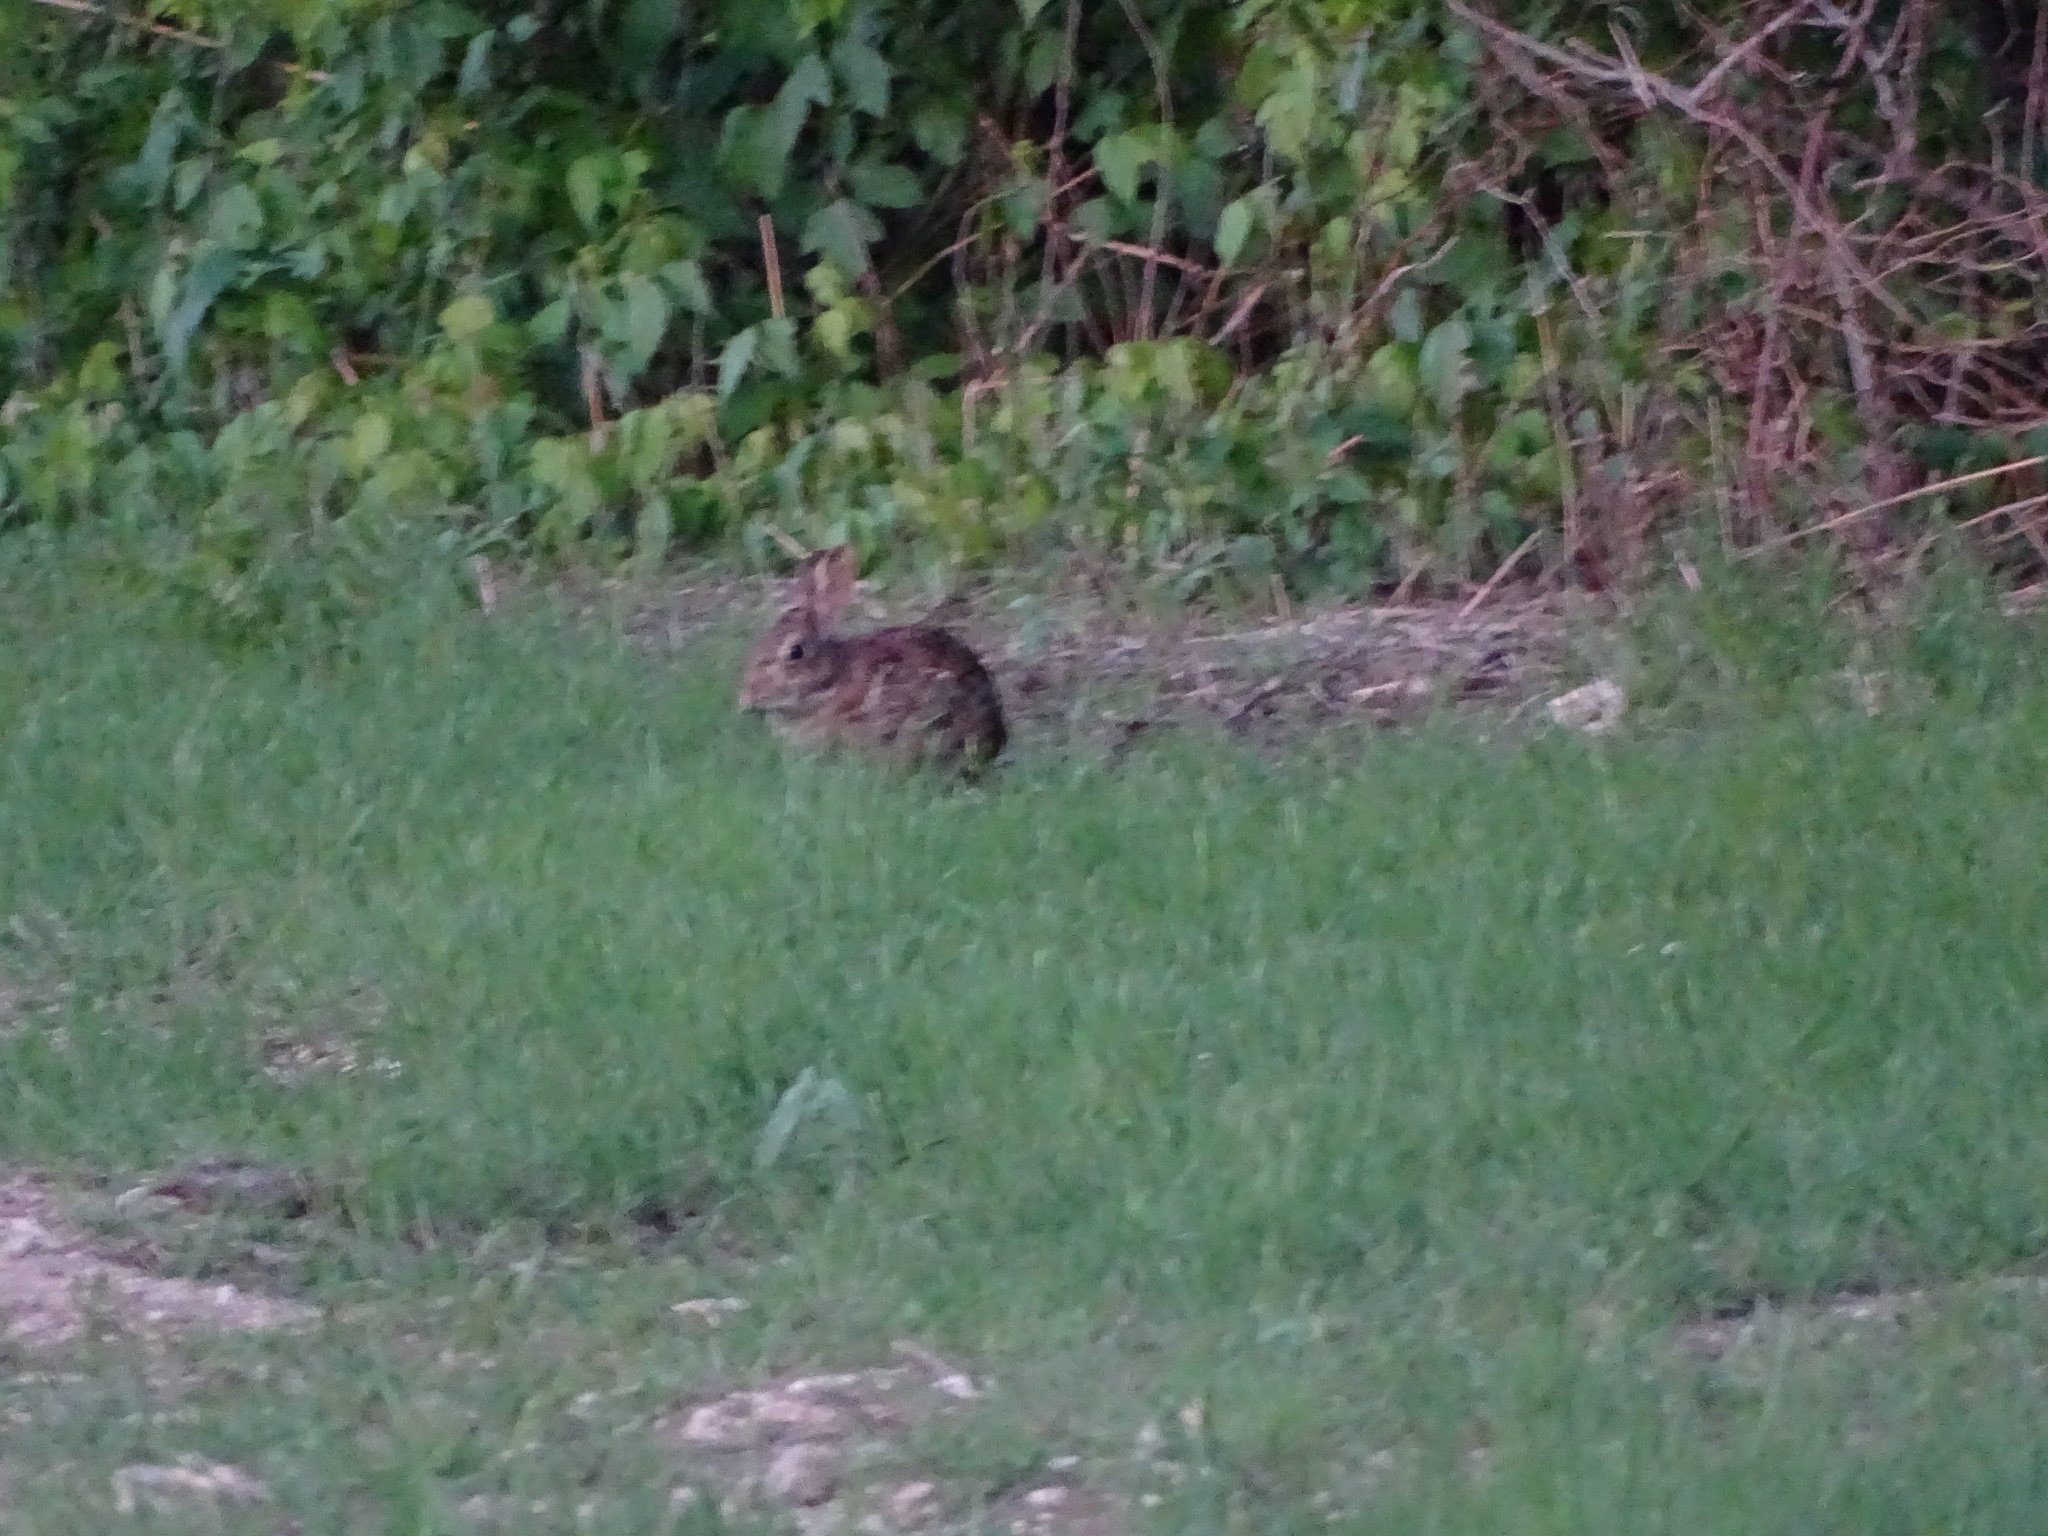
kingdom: Animalia
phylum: Chordata
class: Mammalia
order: Lagomorpha
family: Leporidae
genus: Sylvilagus
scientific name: Sylvilagus floridanus
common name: Eastern cottontail
